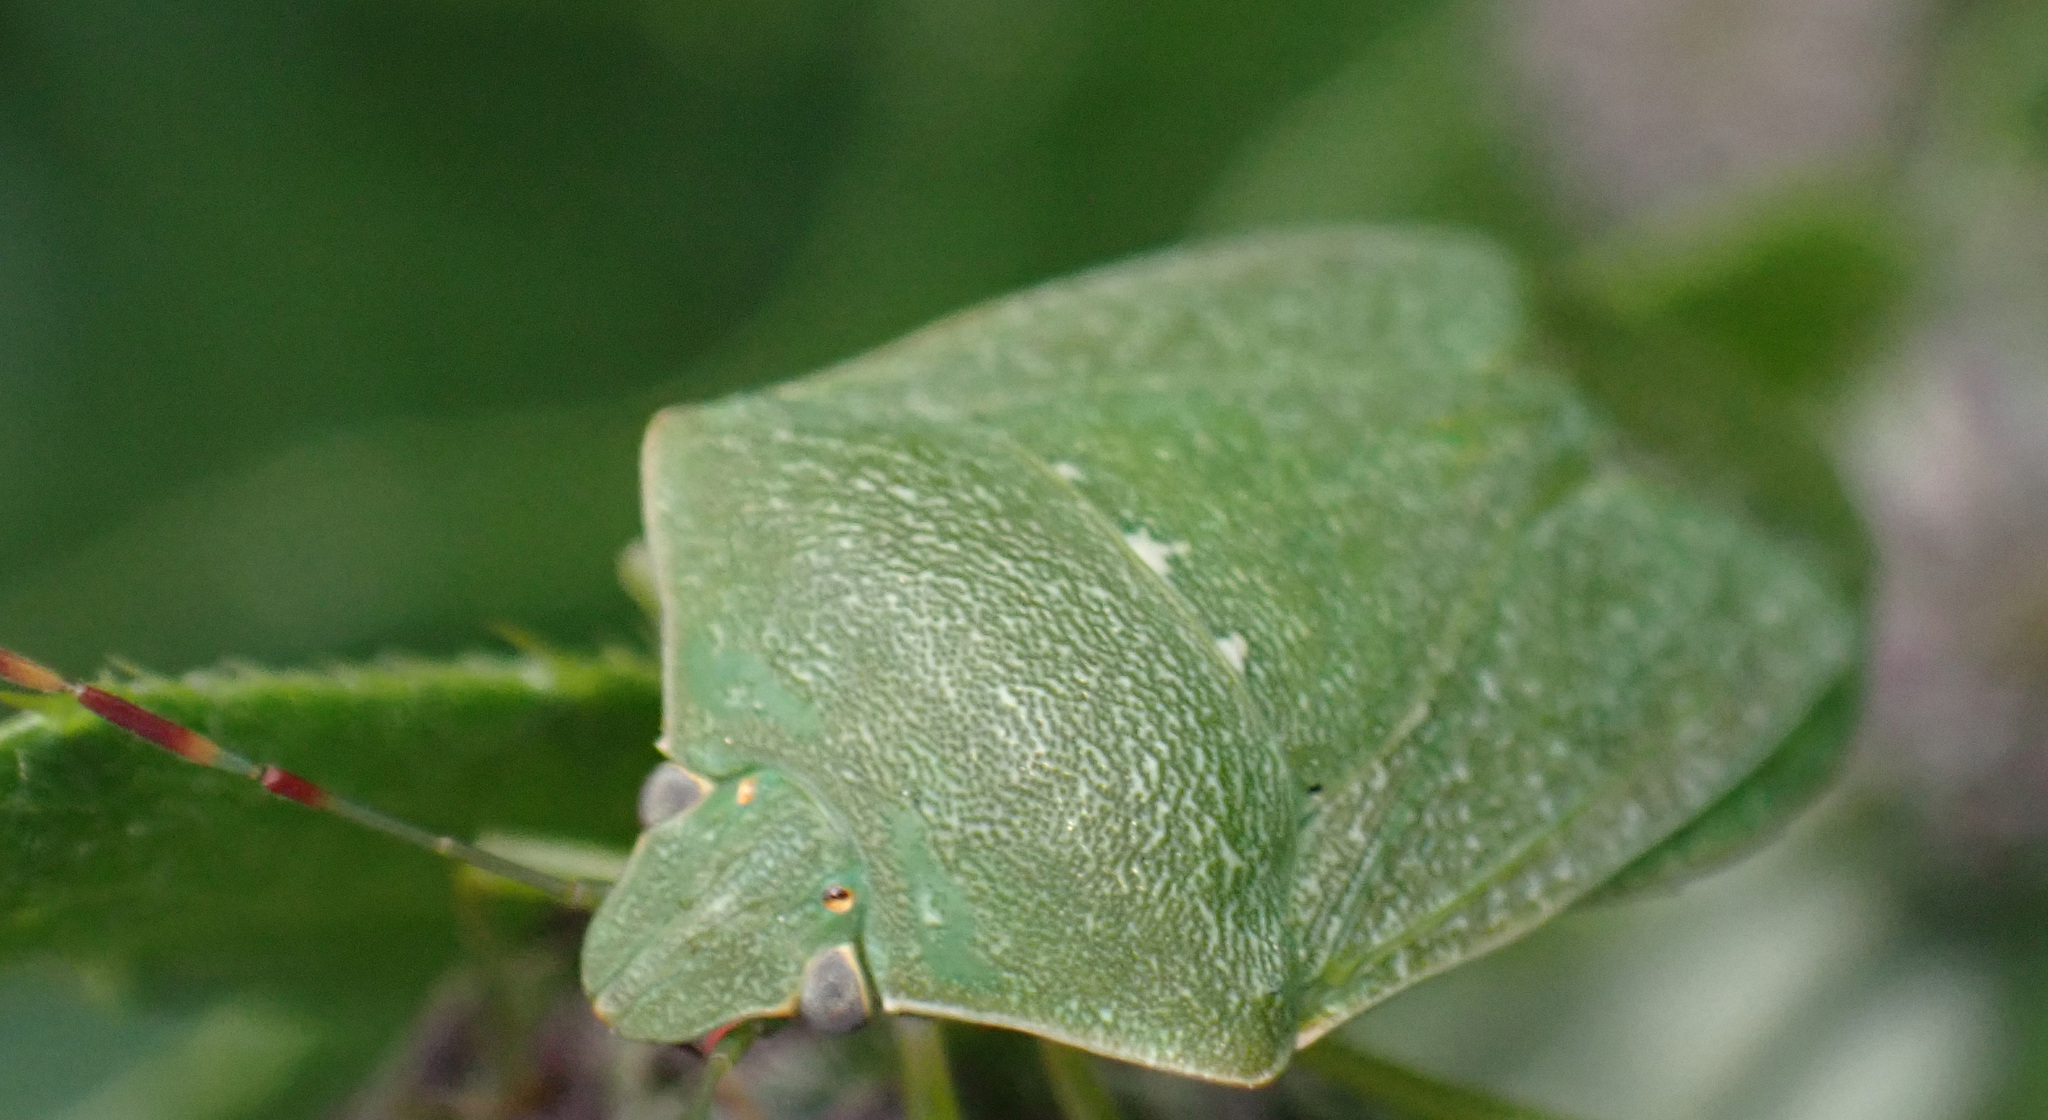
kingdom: Animalia
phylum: Arthropoda
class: Insecta
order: Hemiptera
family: Pentatomidae
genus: Nezara
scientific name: Nezara viridula
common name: Southern green stink bug
